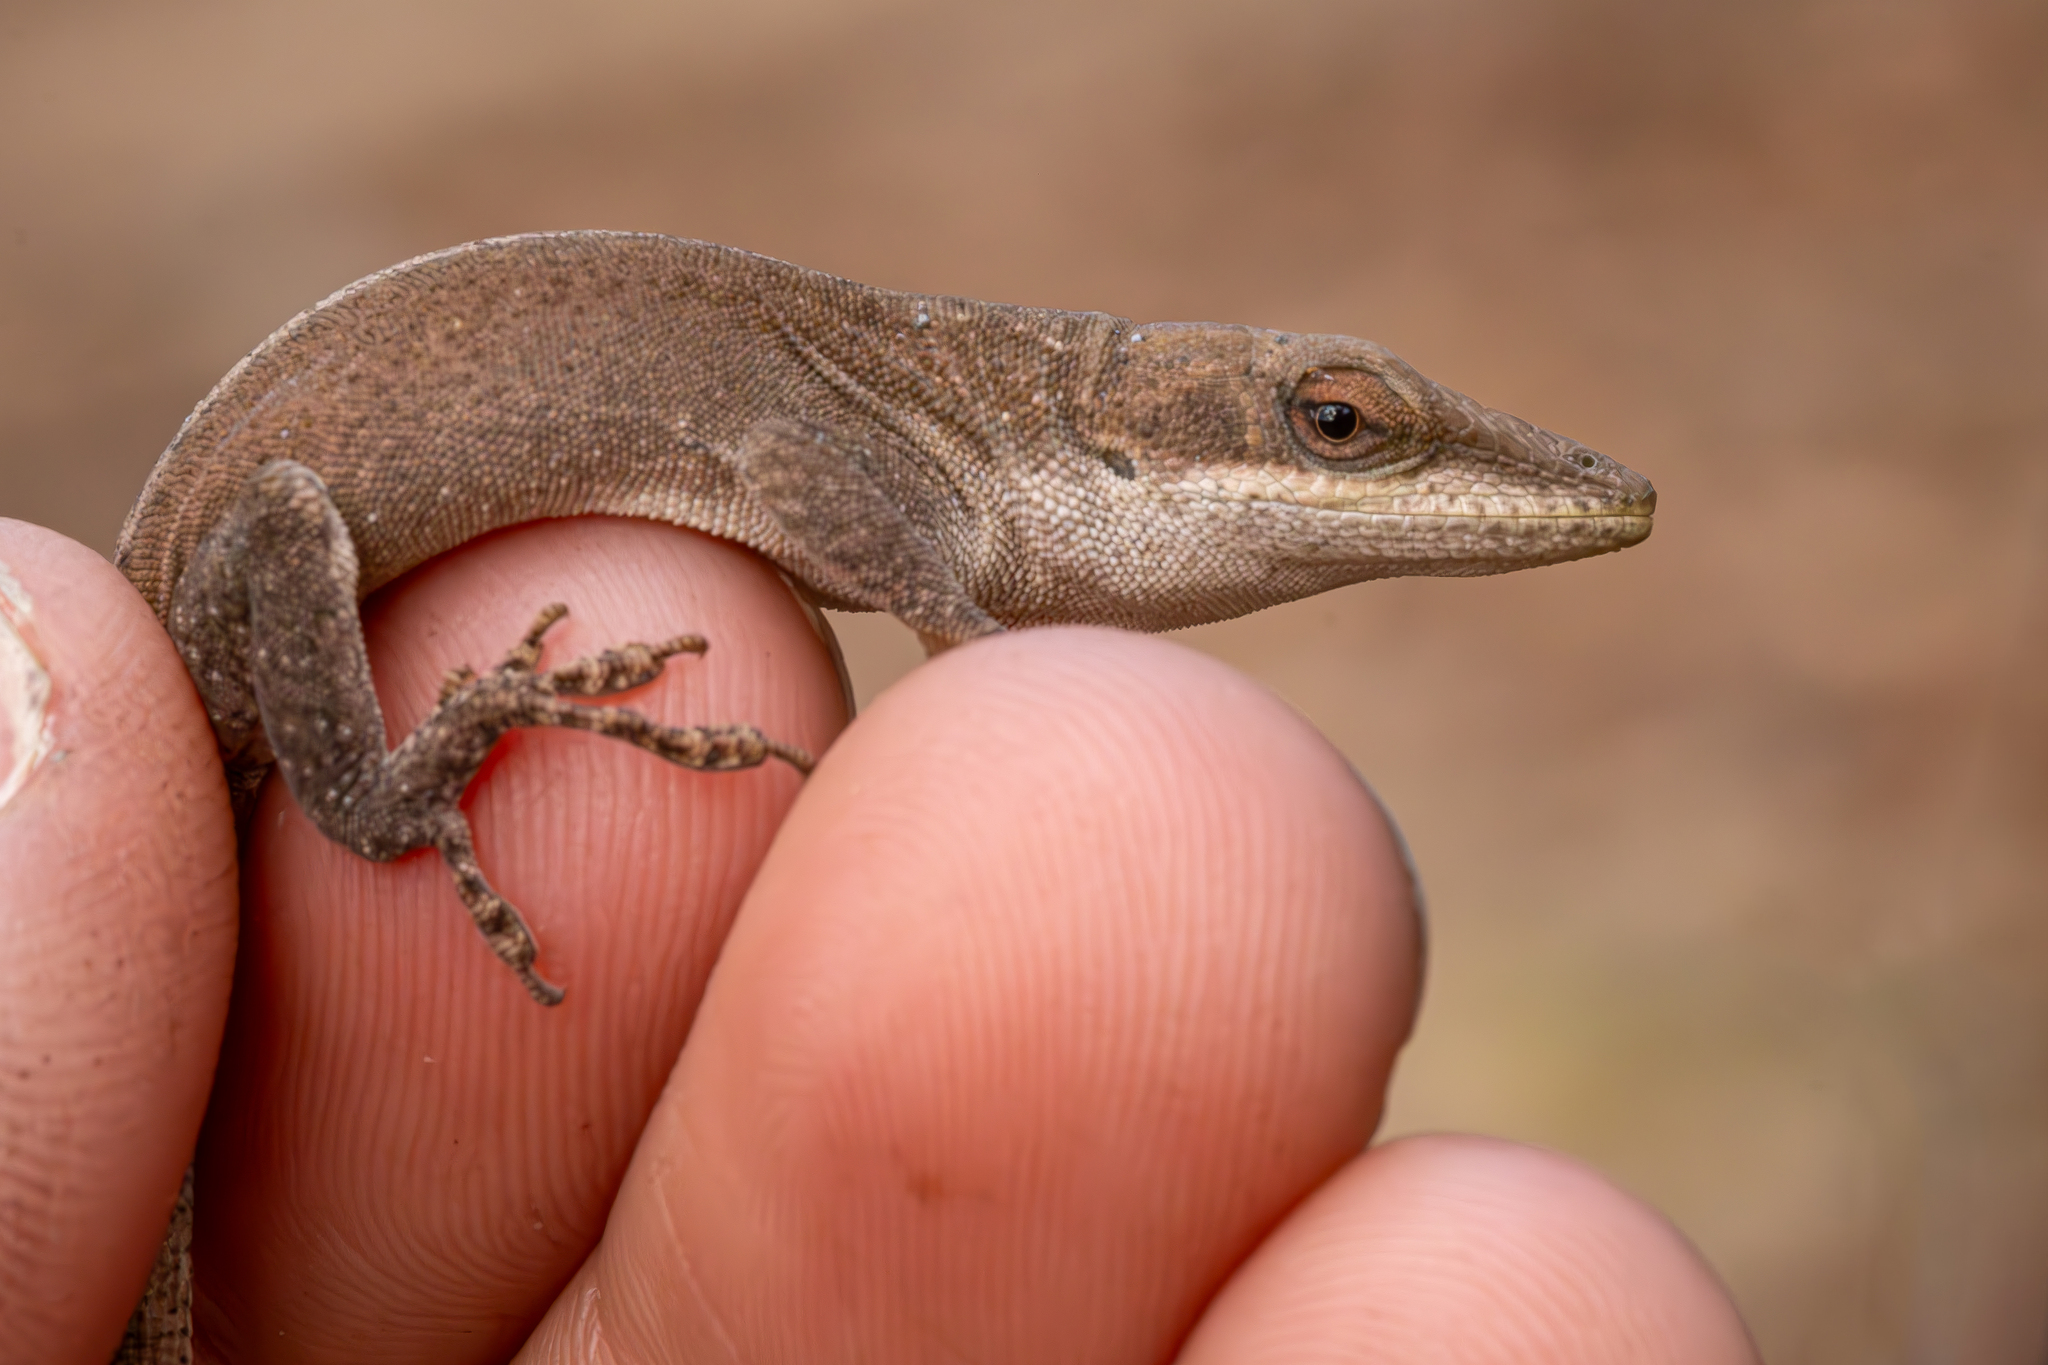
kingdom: Animalia
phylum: Chordata
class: Squamata
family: Dactyloidae
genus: Anolis
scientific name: Anolis carolinensis
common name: Green anole
